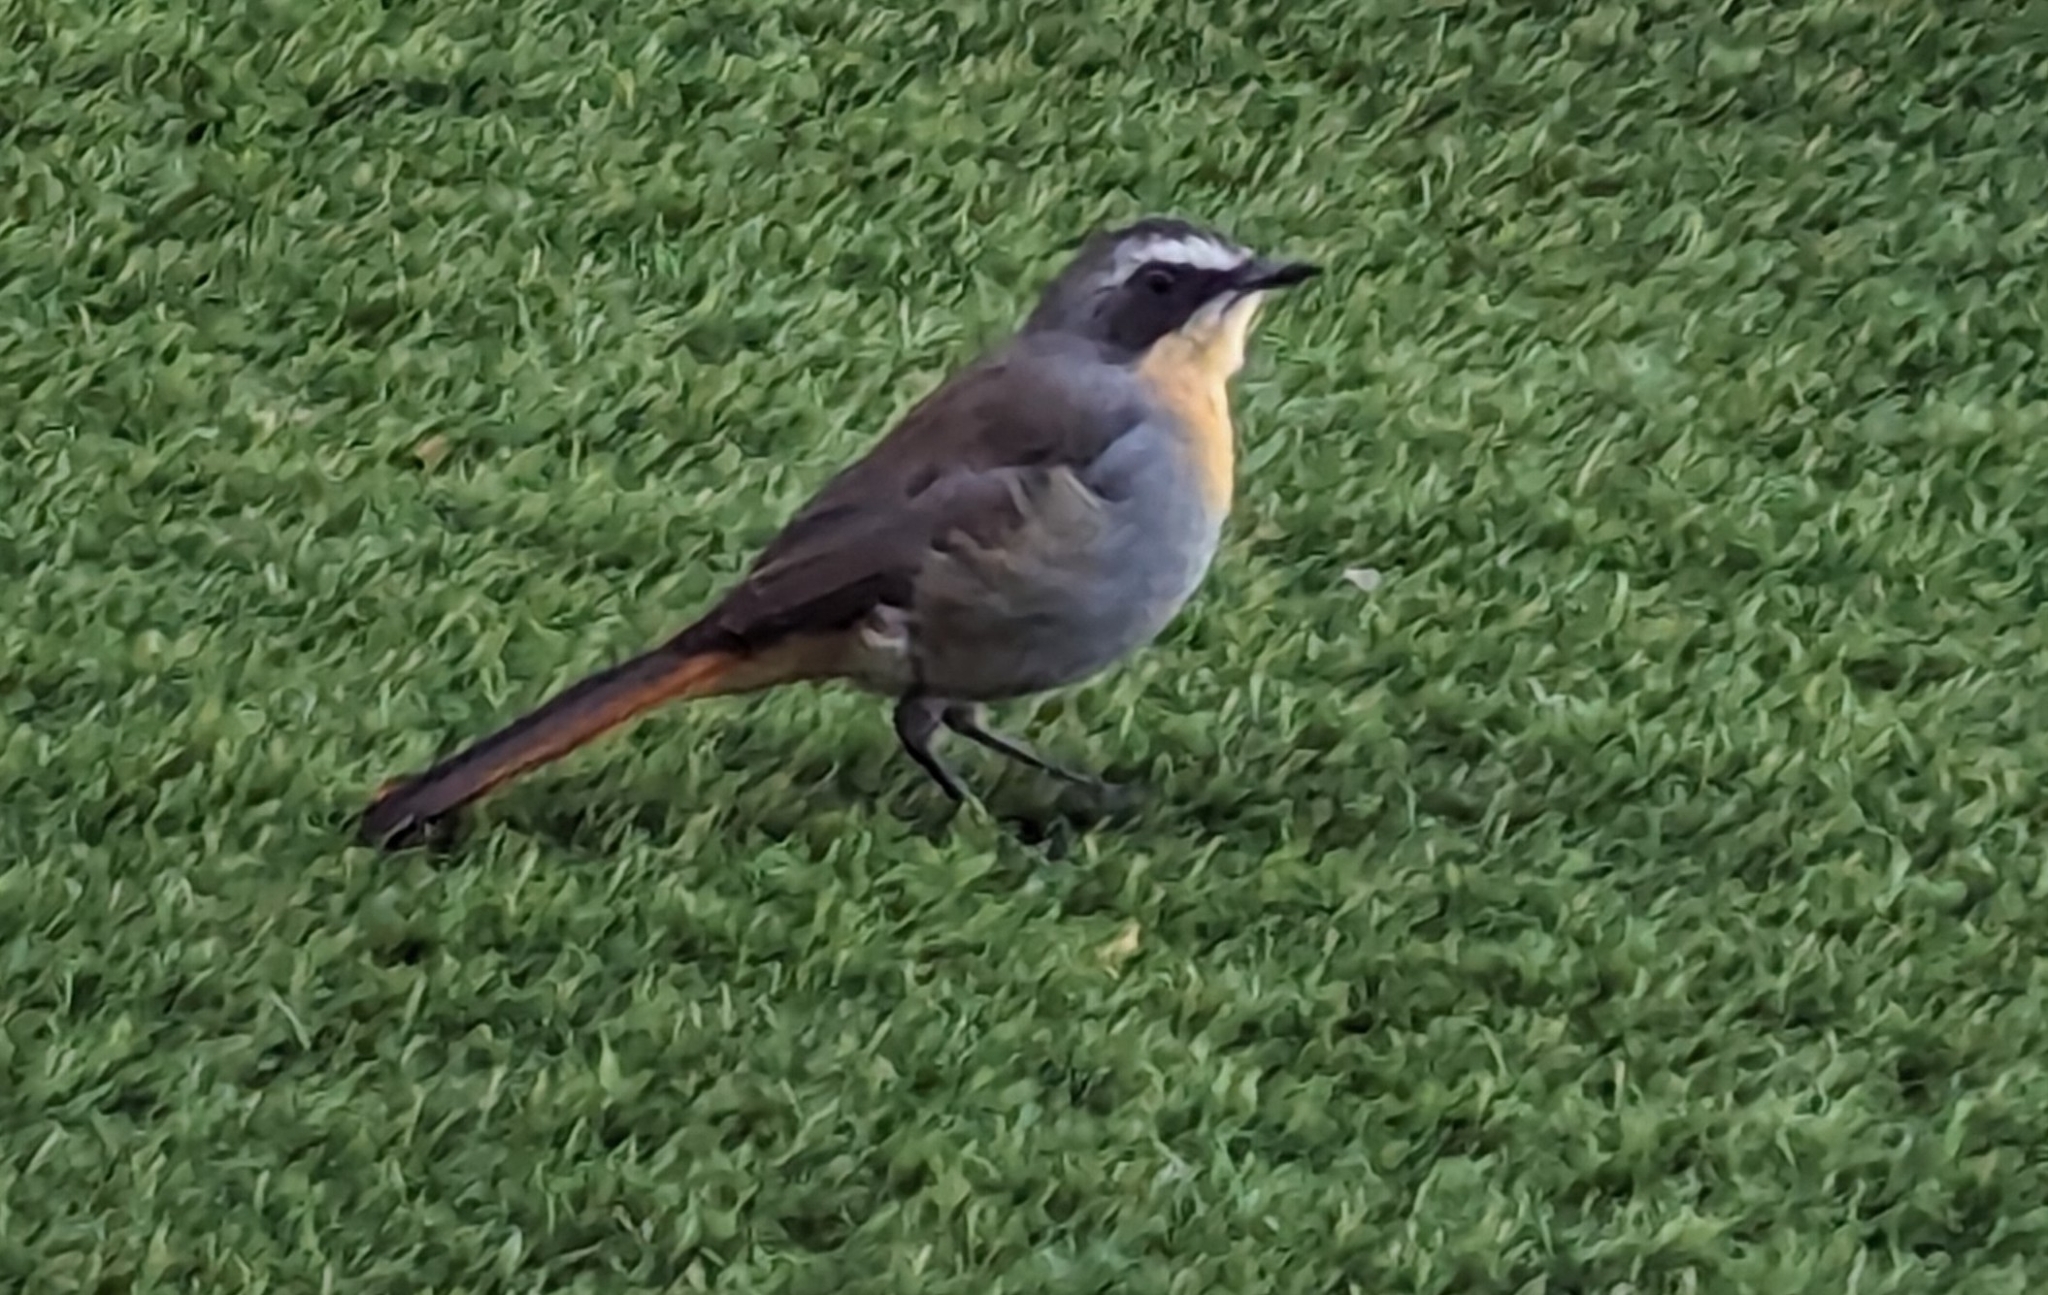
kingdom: Animalia
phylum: Chordata
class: Aves
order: Passeriformes
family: Muscicapidae
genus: Cossypha
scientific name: Cossypha caffra
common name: Cape robin-chat
